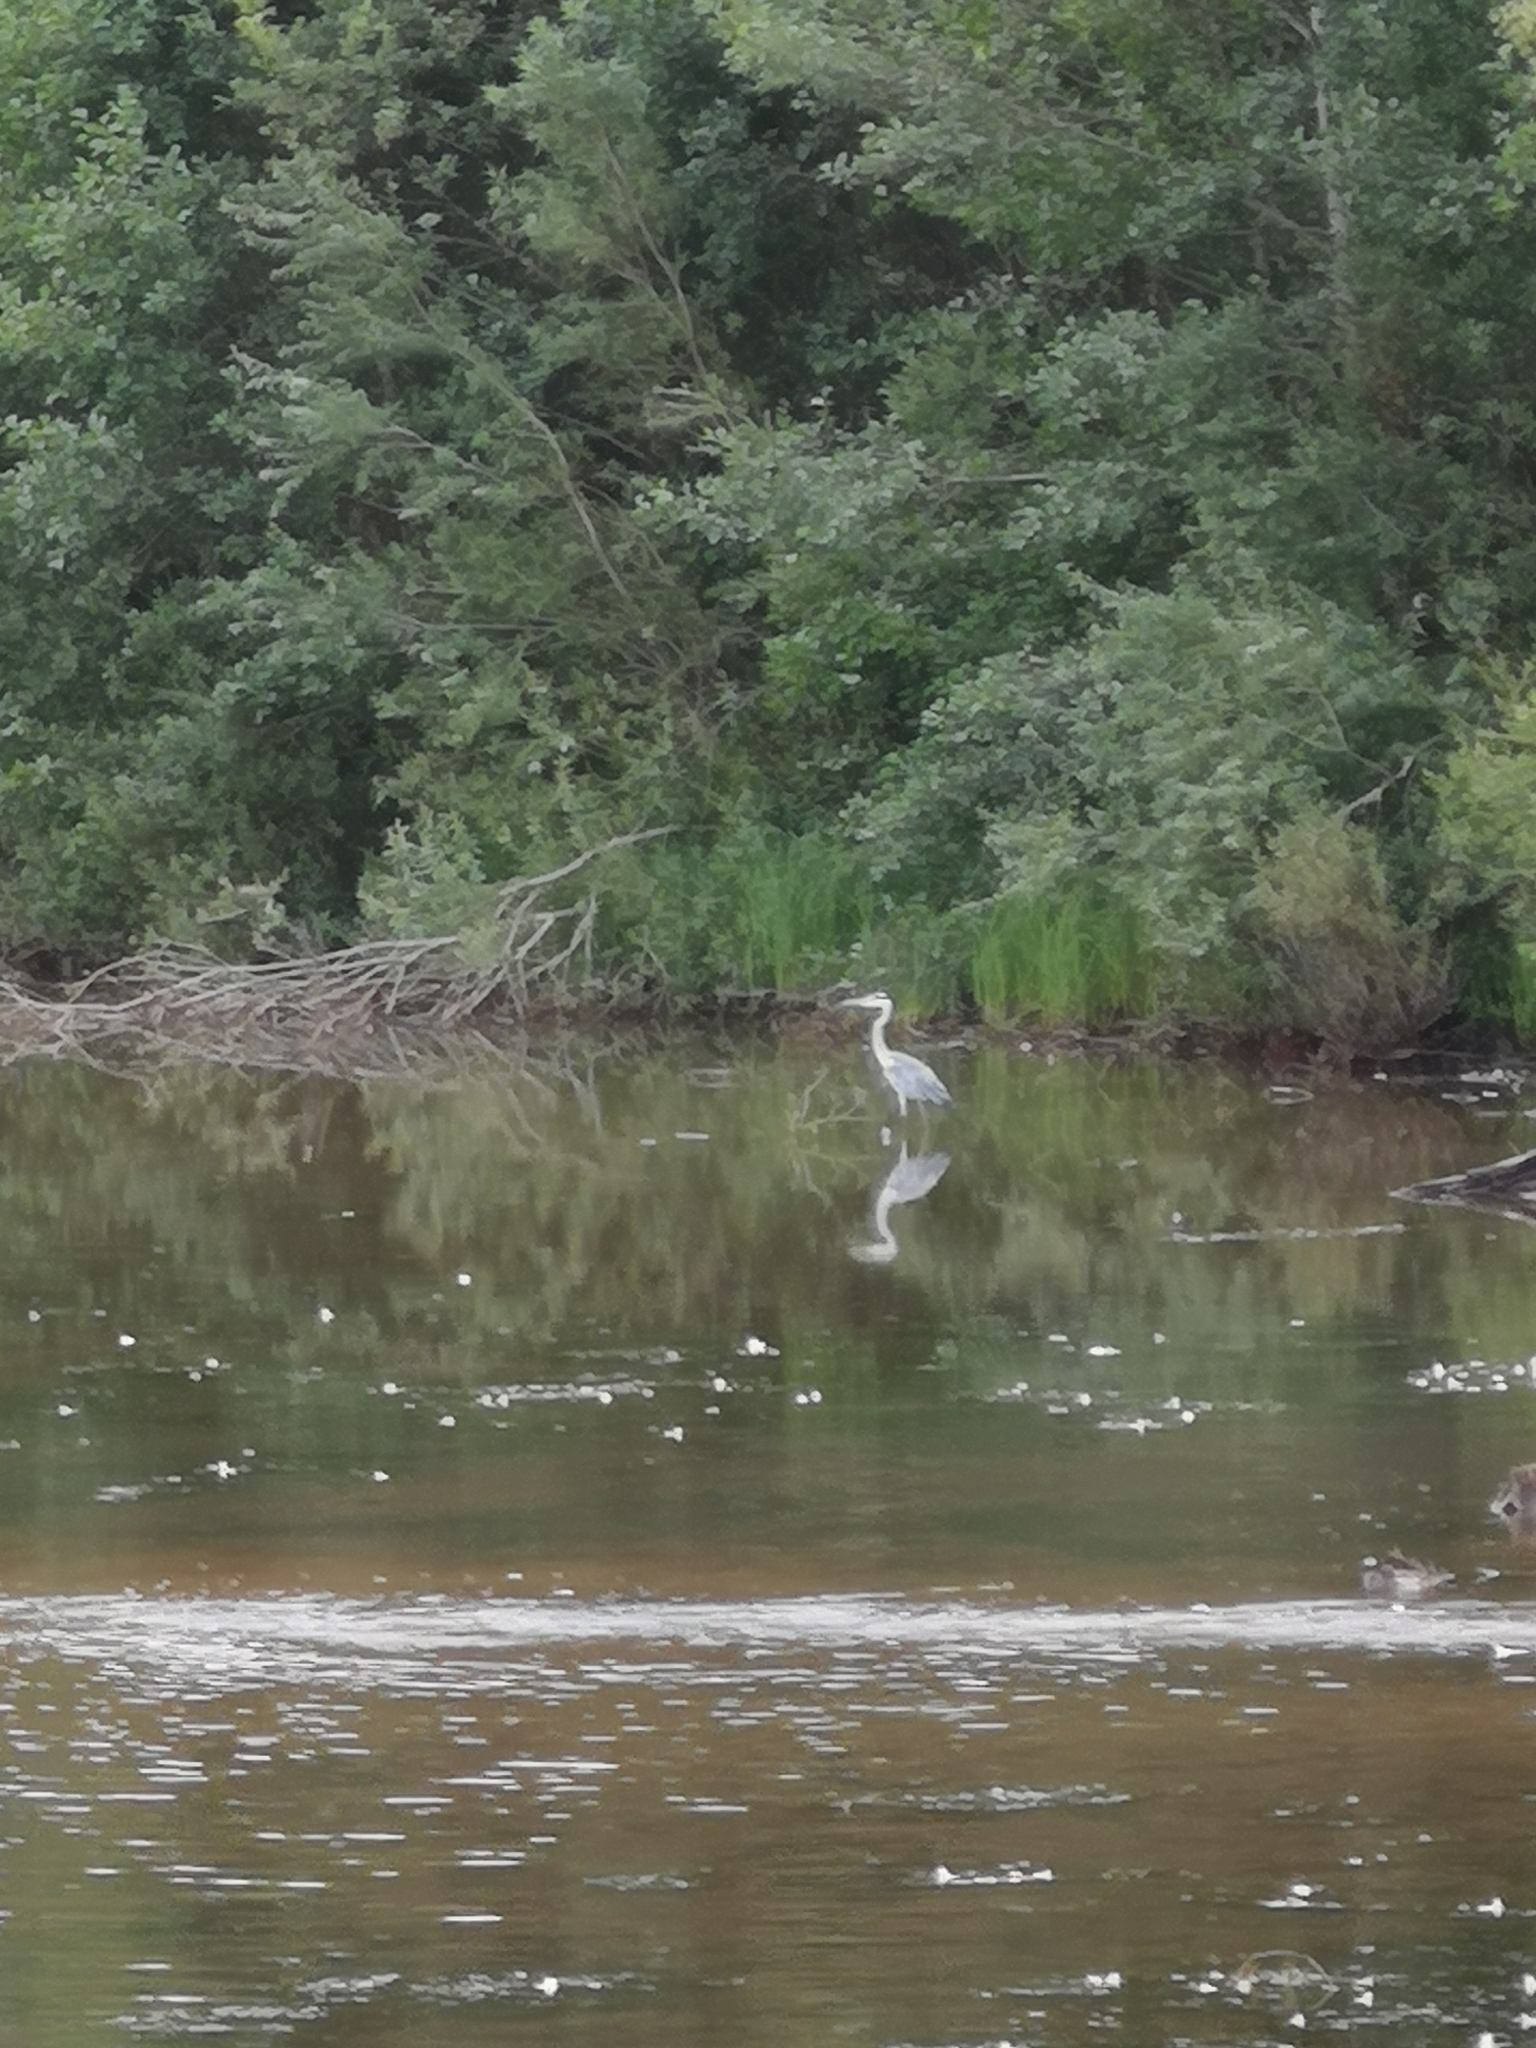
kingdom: Animalia
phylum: Chordata
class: Aves
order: Pelecaniformes
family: Ardeidae
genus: Ardea
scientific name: Ardea cinerea
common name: Grey heron
